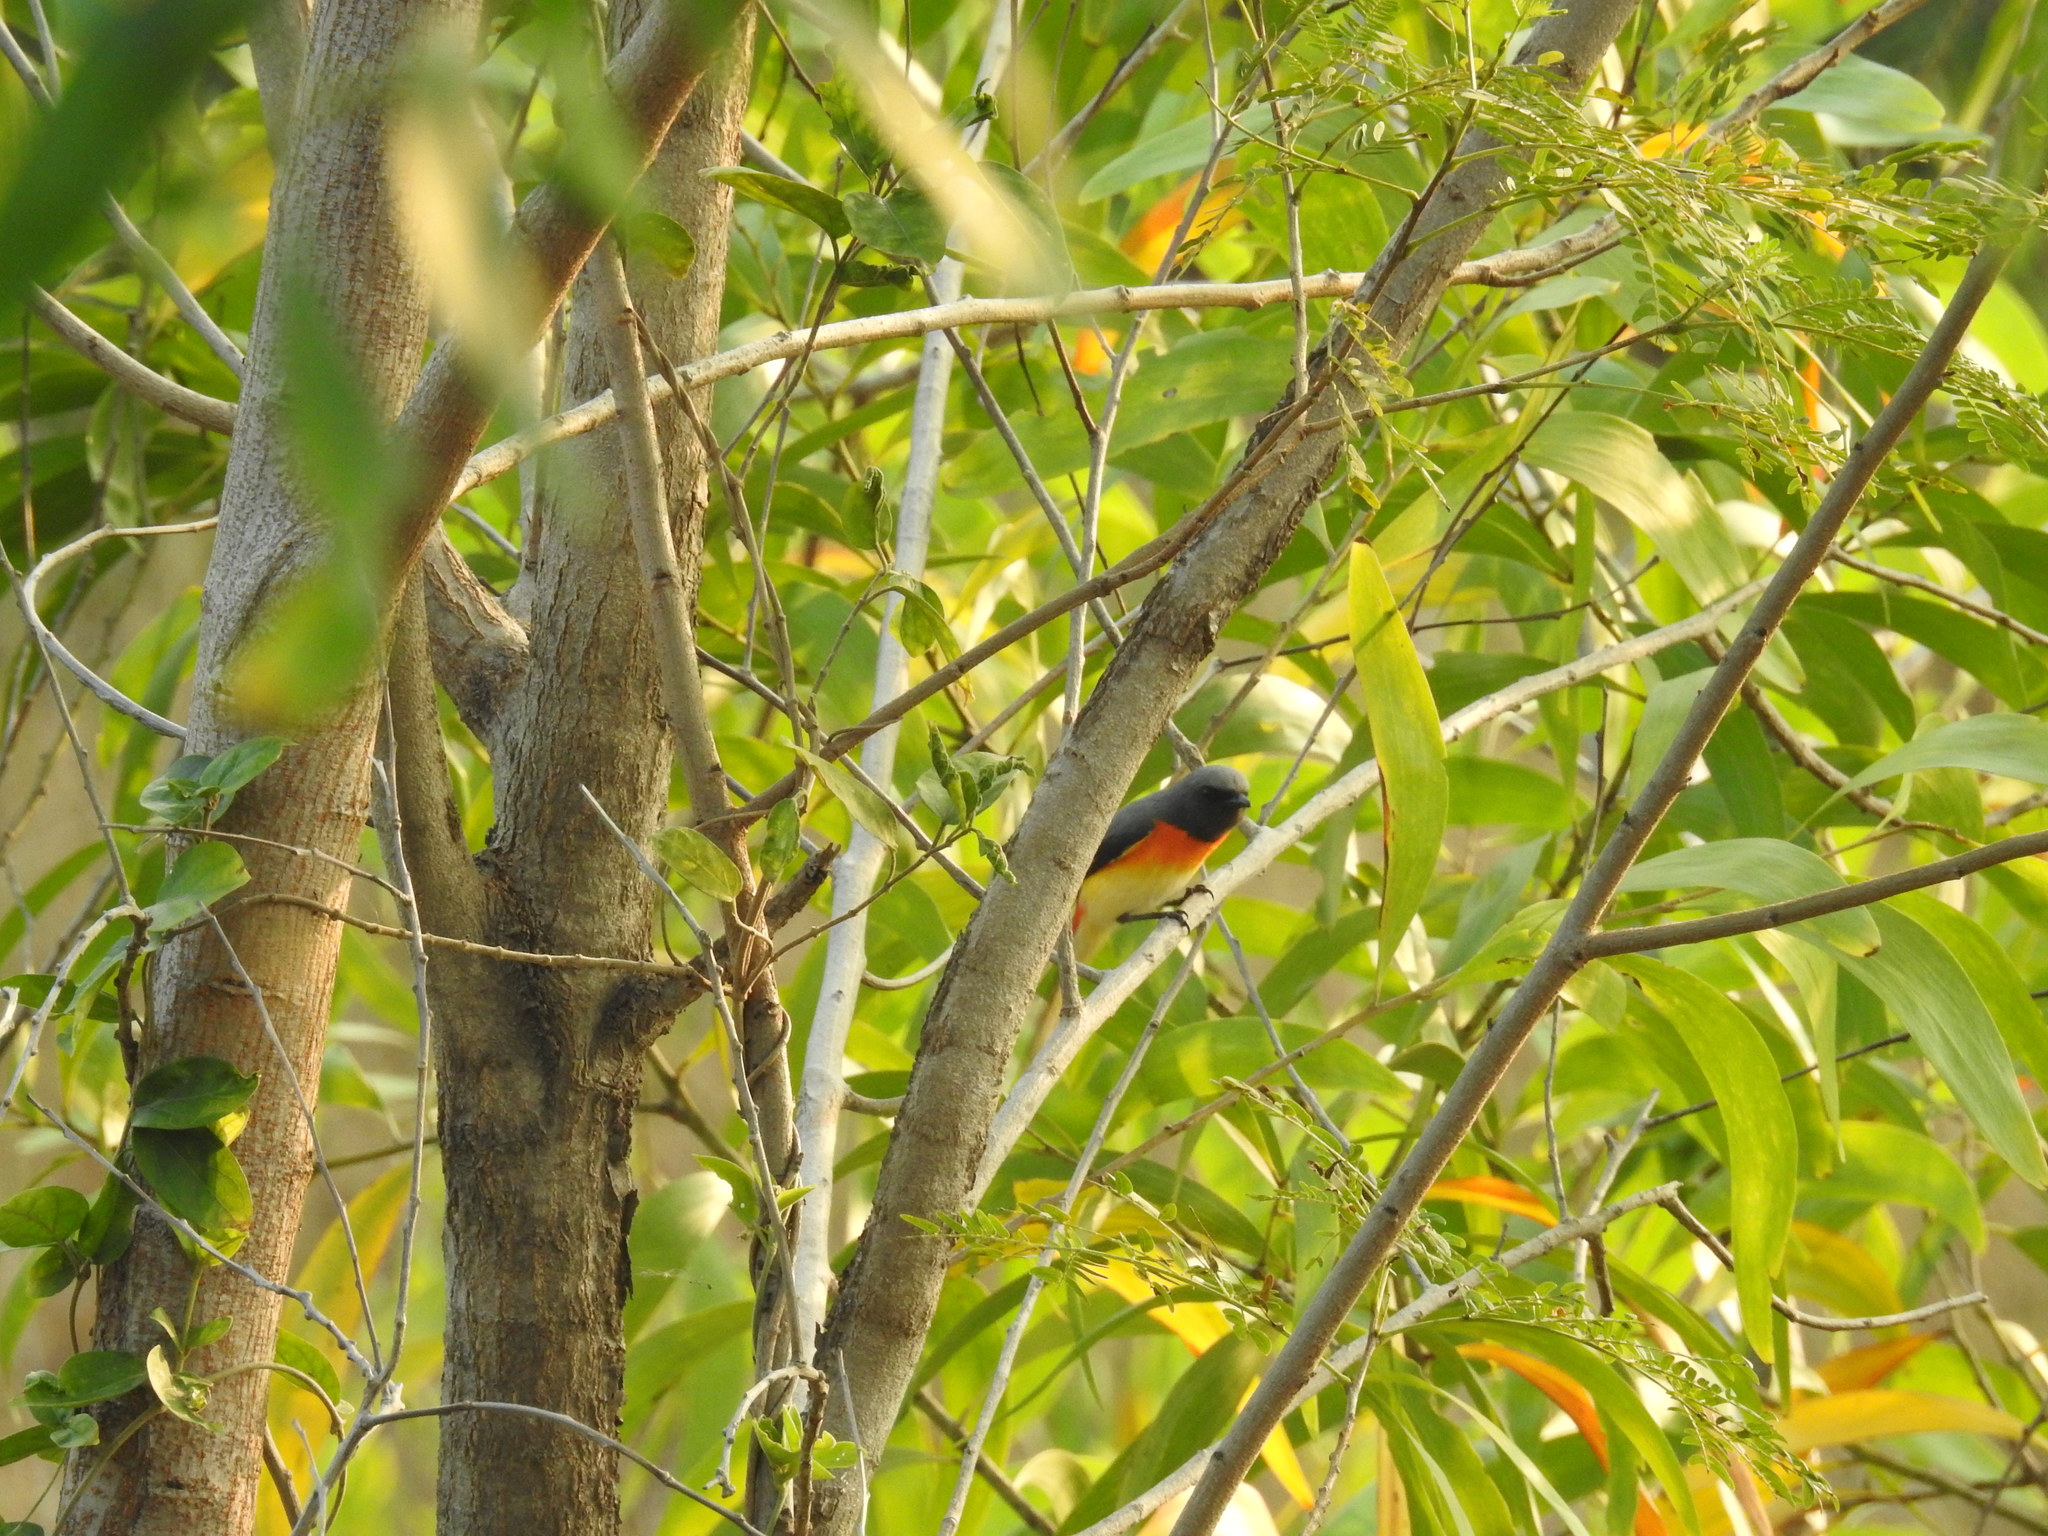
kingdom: Animalia
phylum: Chordata
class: Aves
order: Passeriformes
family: Campephagidae
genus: Pericrocotus
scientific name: Pericrocotus cinnamomeus
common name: Small minivet
